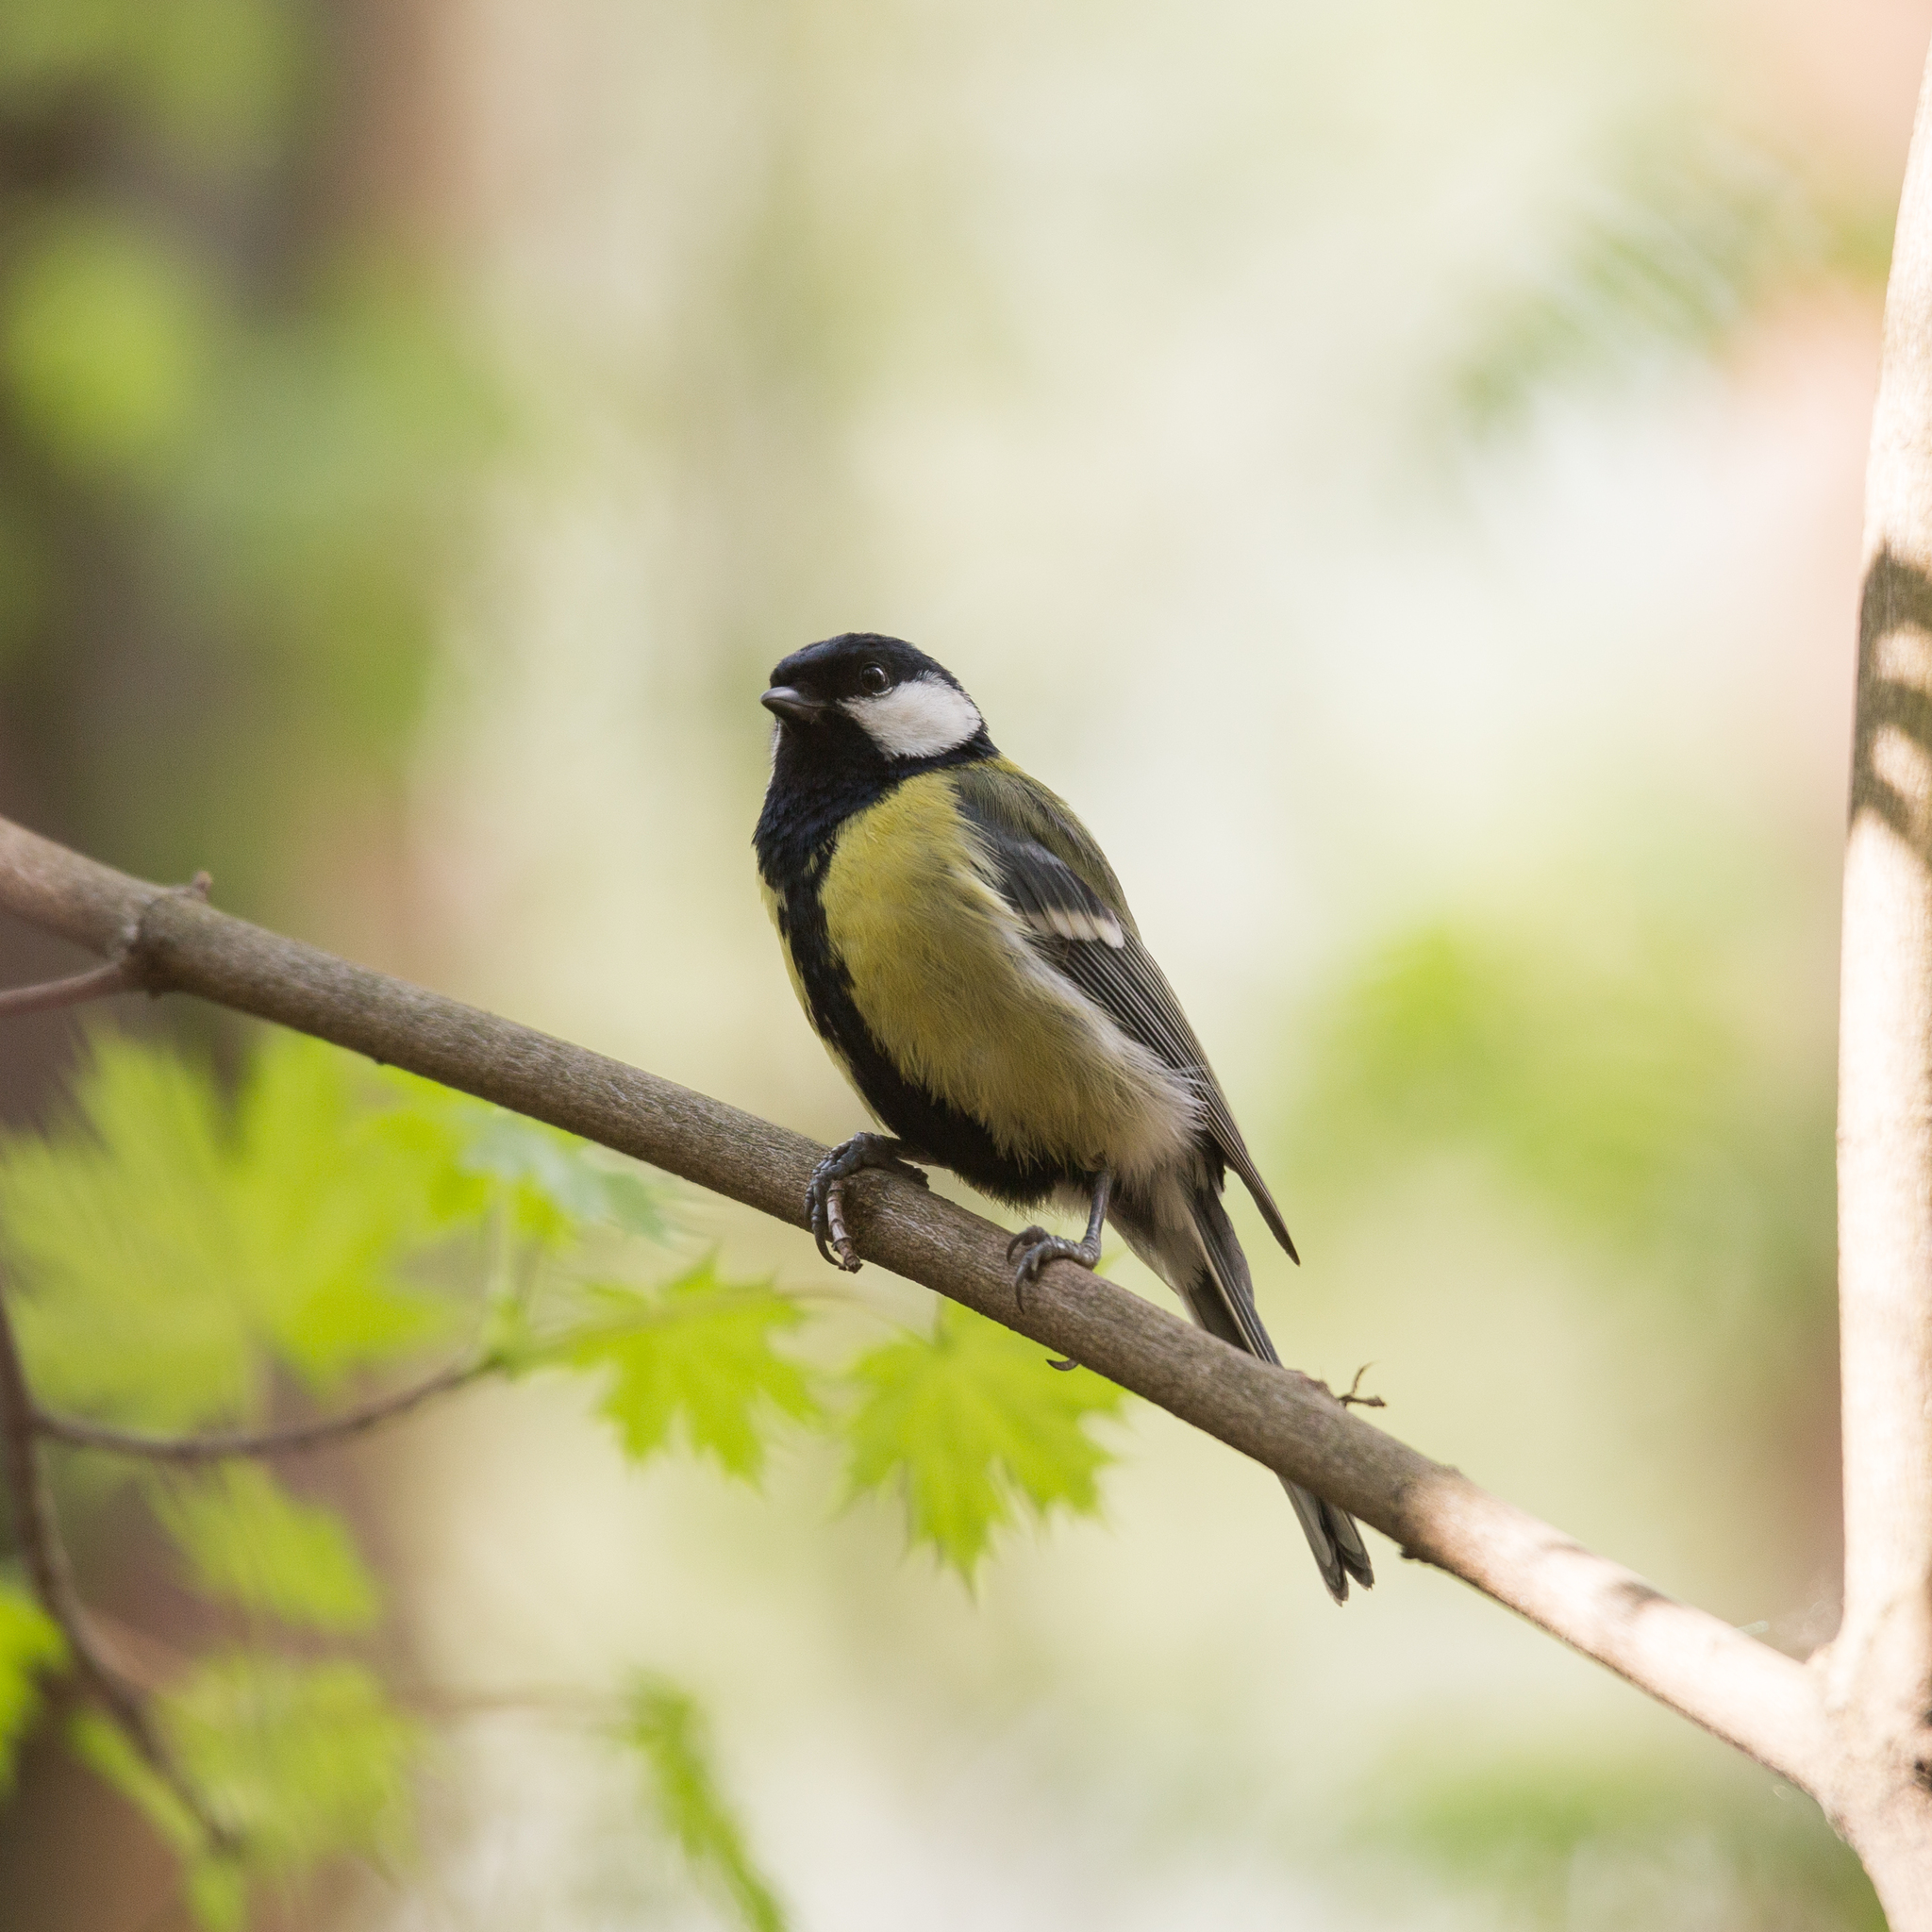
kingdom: Animalia
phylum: Chordata
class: Aves
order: Passeriformes
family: Paridae
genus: Parus
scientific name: Parus major
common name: Great tit
